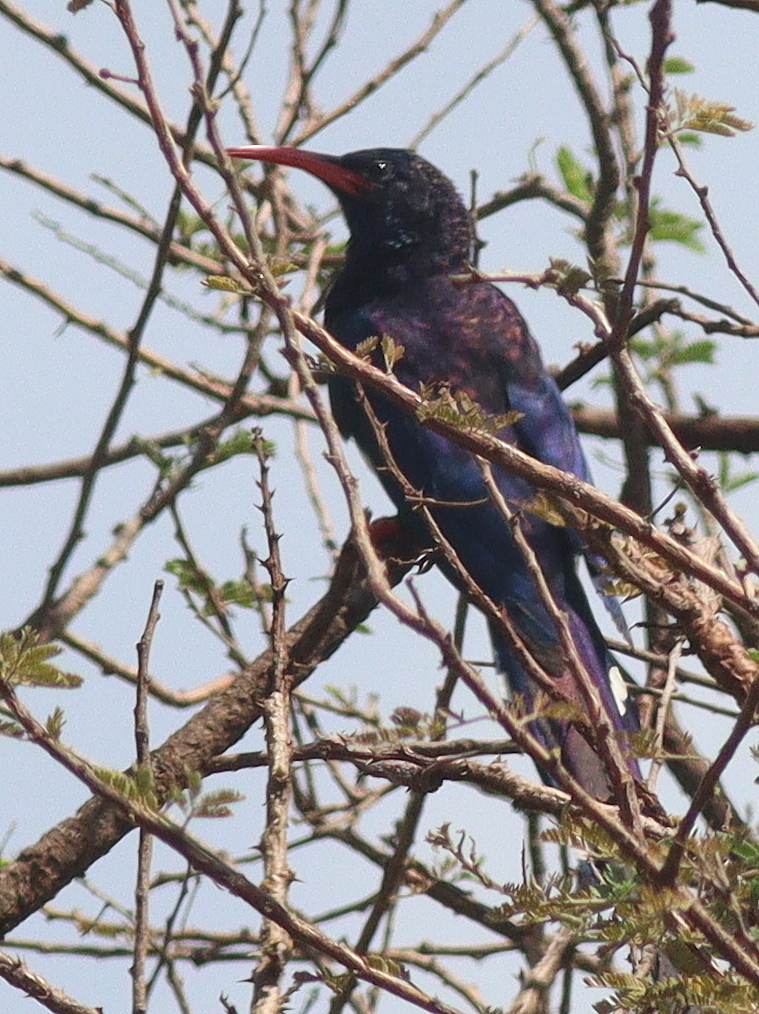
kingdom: Animalia
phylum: Chordata
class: Aves
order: Bucerotiformes
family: Phoeniculidae
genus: Phoeniculus
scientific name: Phoeniculus granti
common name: Grant's wood hoopoe
